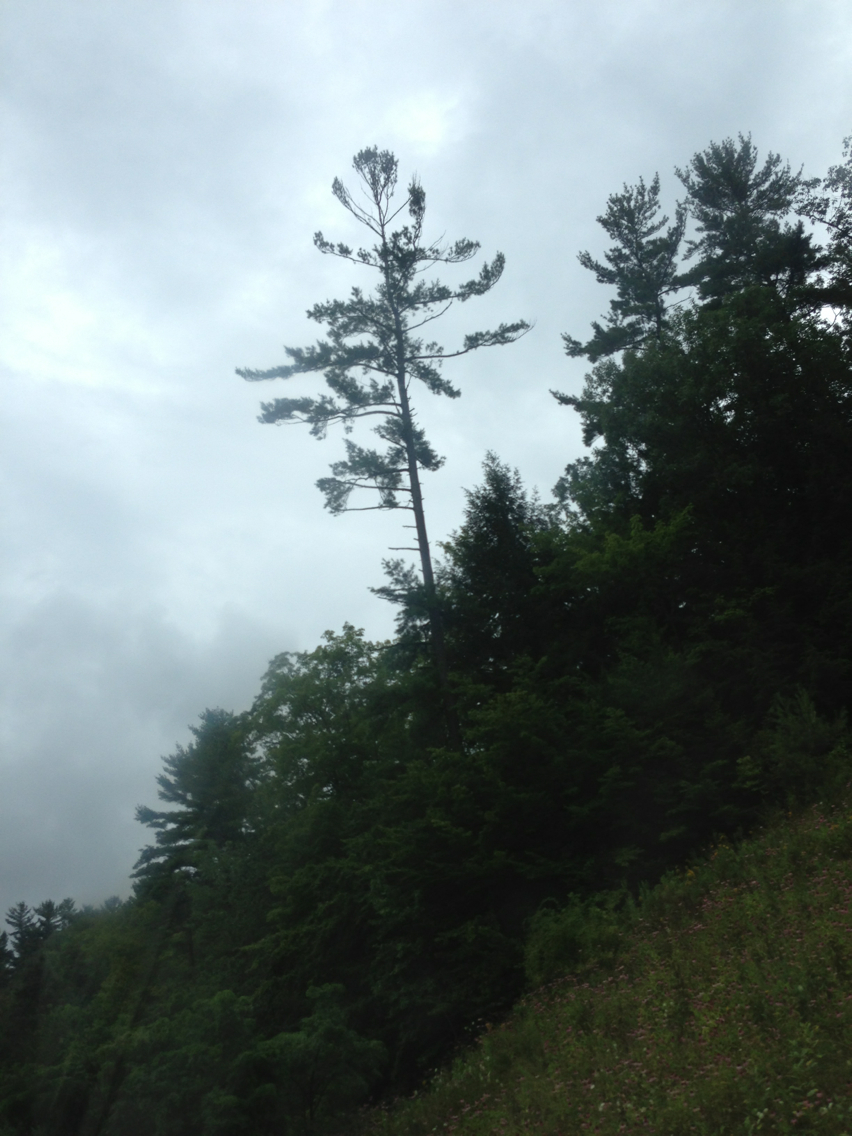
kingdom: Plantae
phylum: Tracheophyta
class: Pinopsida
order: Pinales
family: Pinaceae
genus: Pinus
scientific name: Pinus strobus
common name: Weymouth pine
